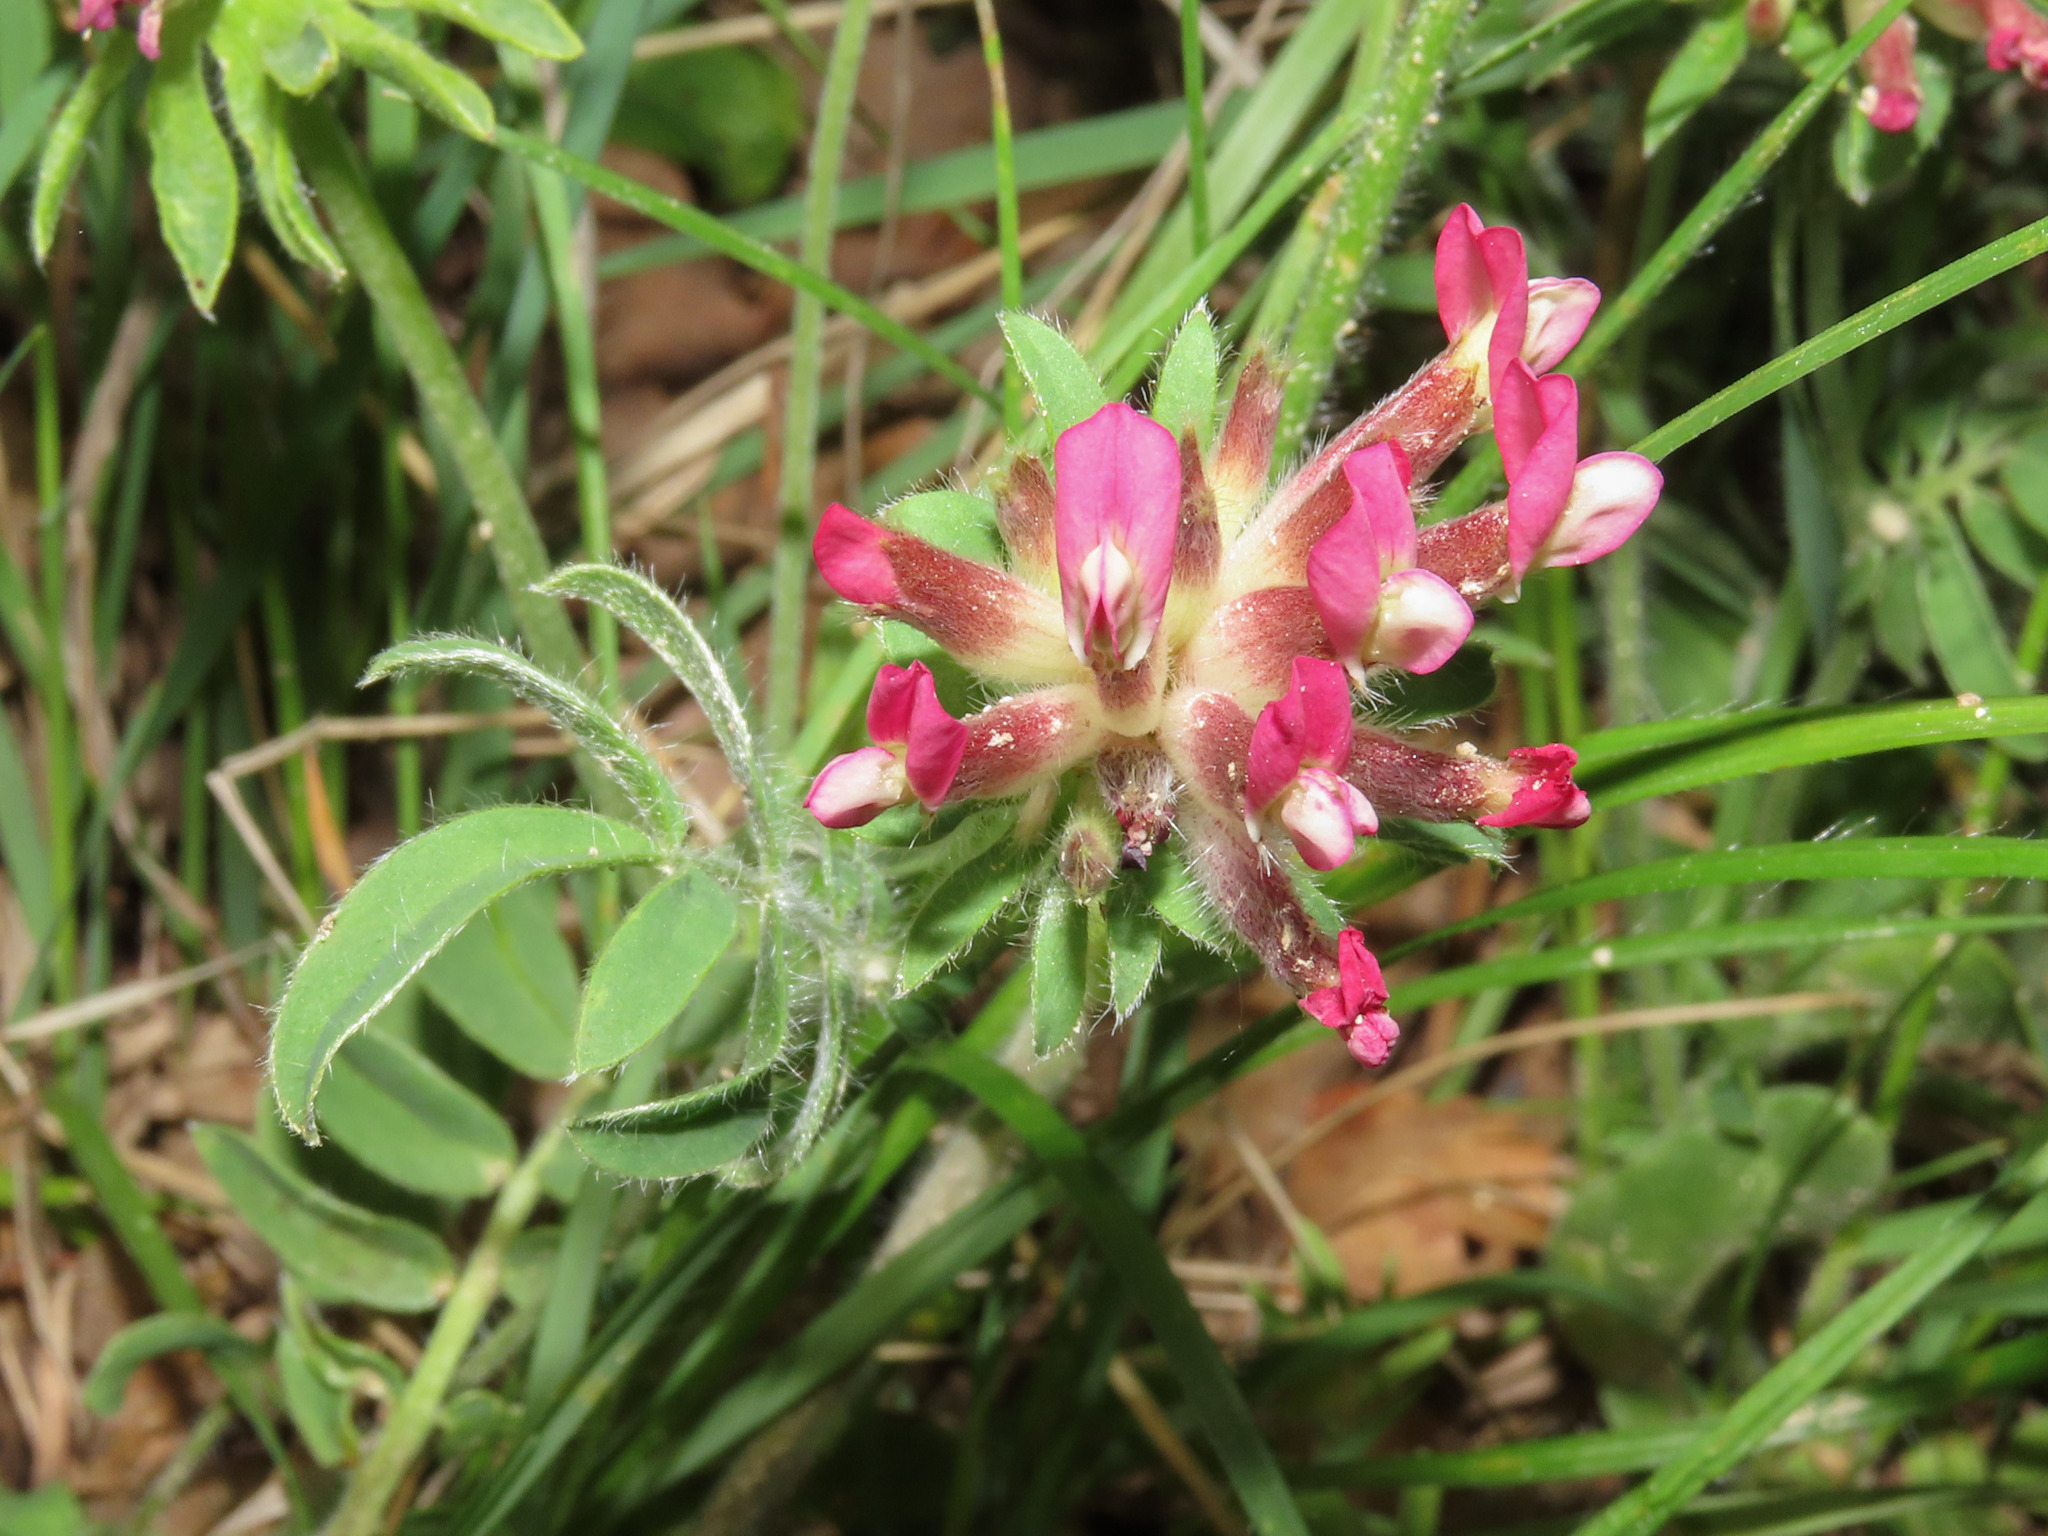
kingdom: Plantae
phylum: Tracheophyta
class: Magnoliopsida
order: Fabales
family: Fabaceae
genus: Anthyllis
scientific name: Anthyllis vulneraria
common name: Kidney vetch
